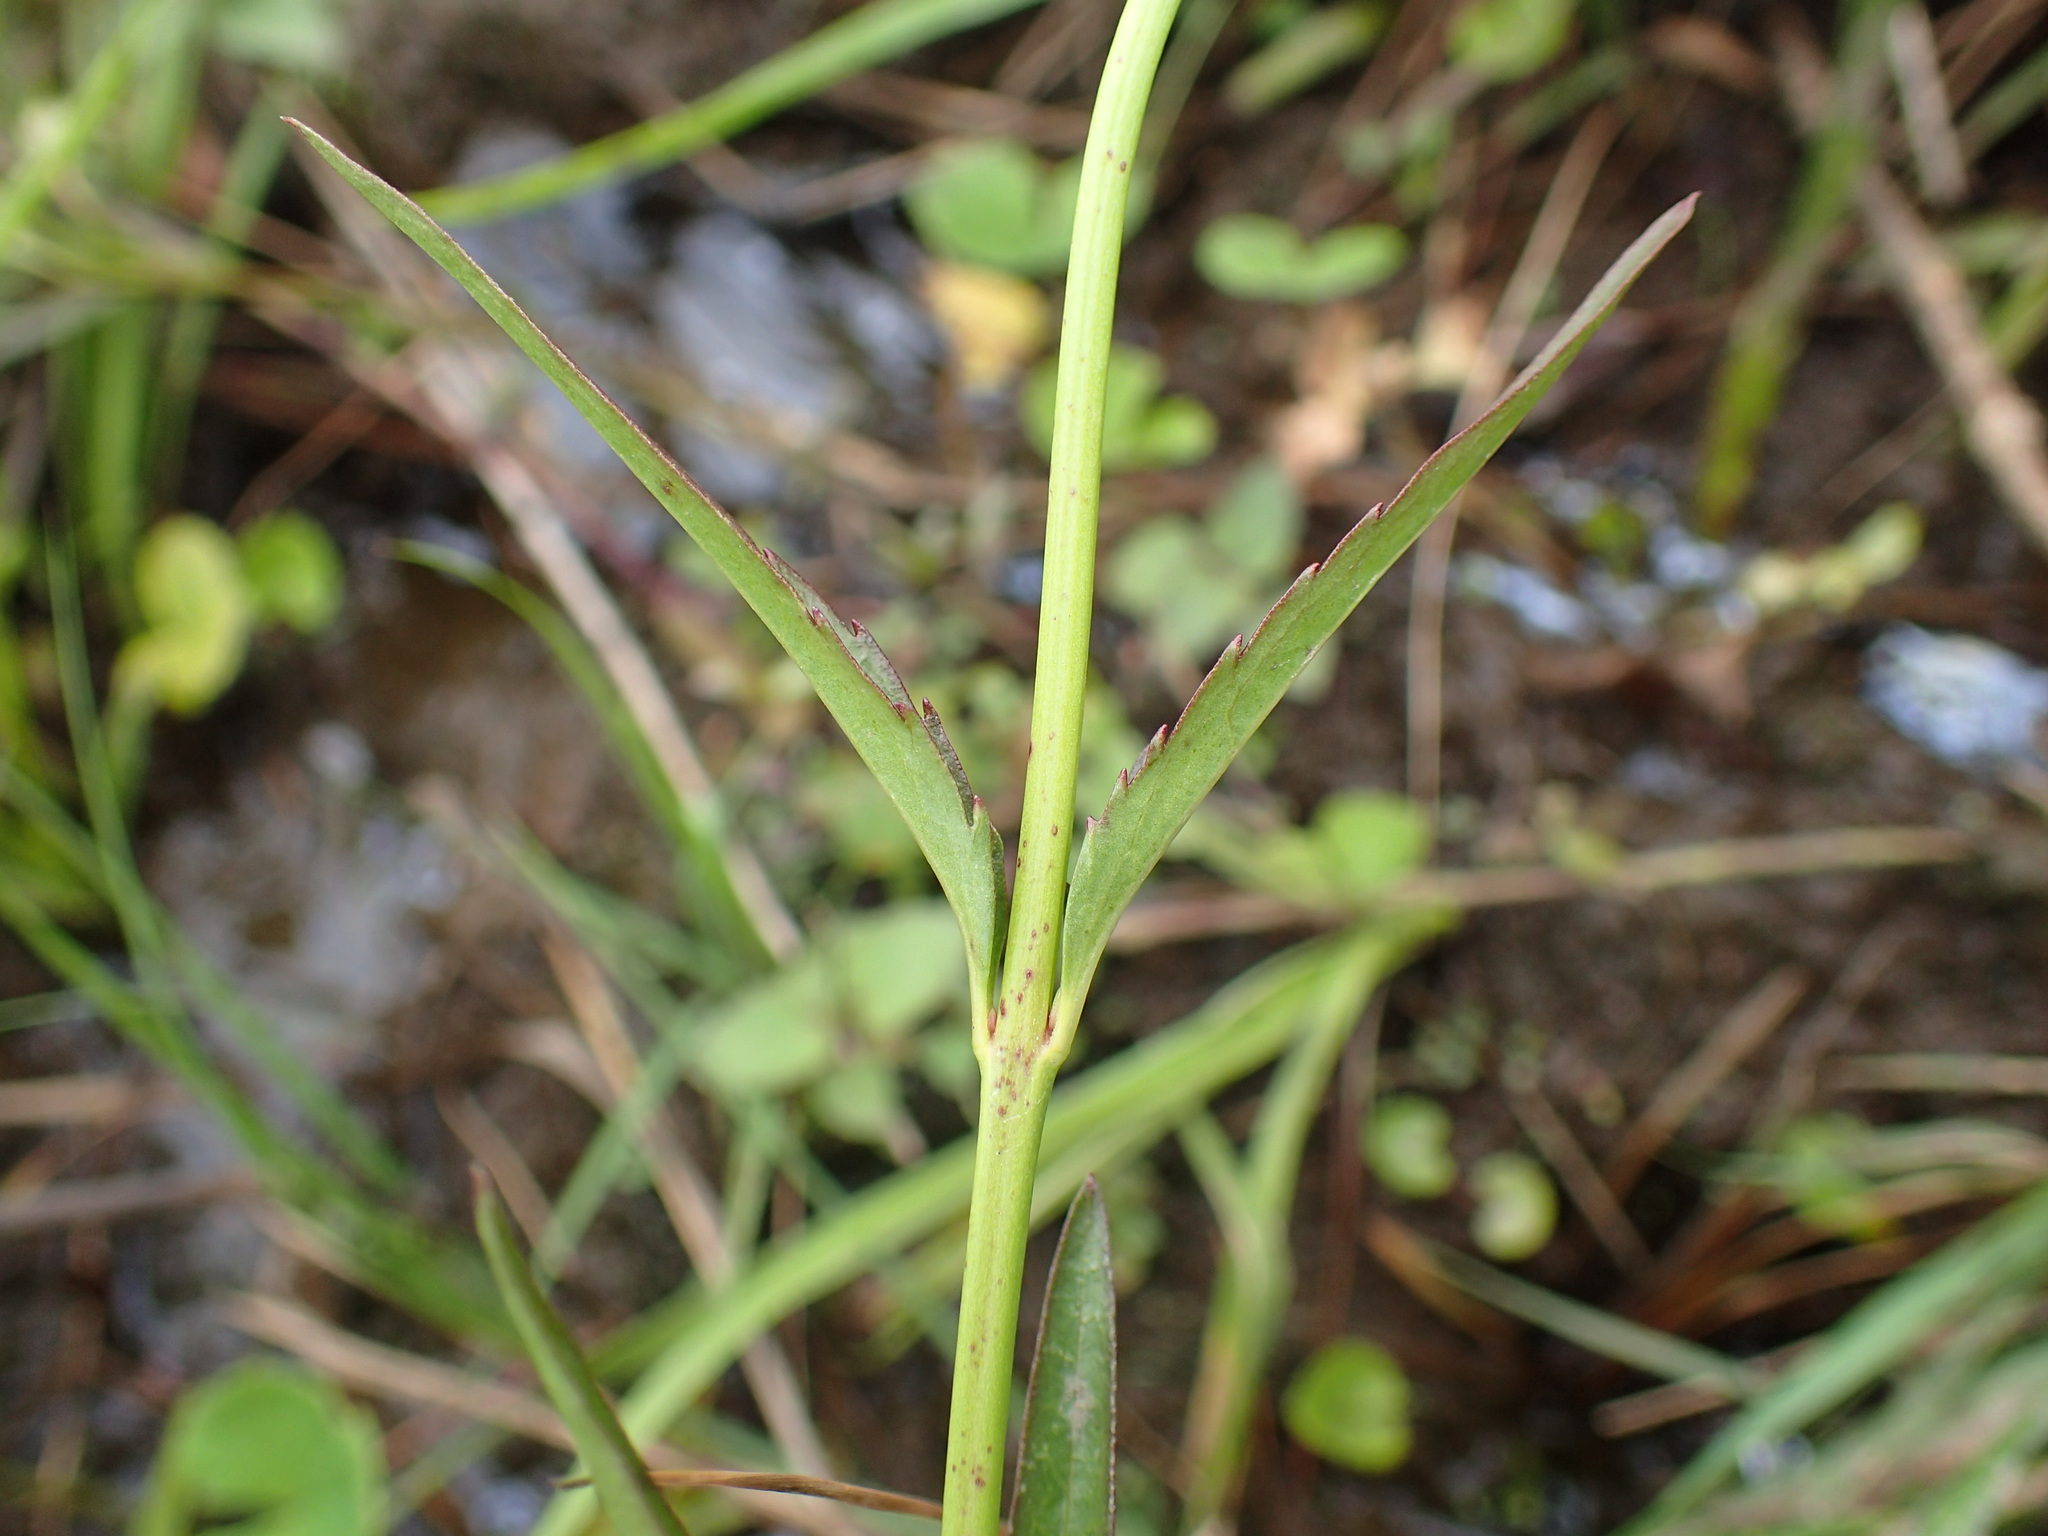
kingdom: Plantae
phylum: Tracheophyta
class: Magnoliopsida
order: Lamiales
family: Orobanchaceae
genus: Cycnium
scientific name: Cycnium tubulosum
